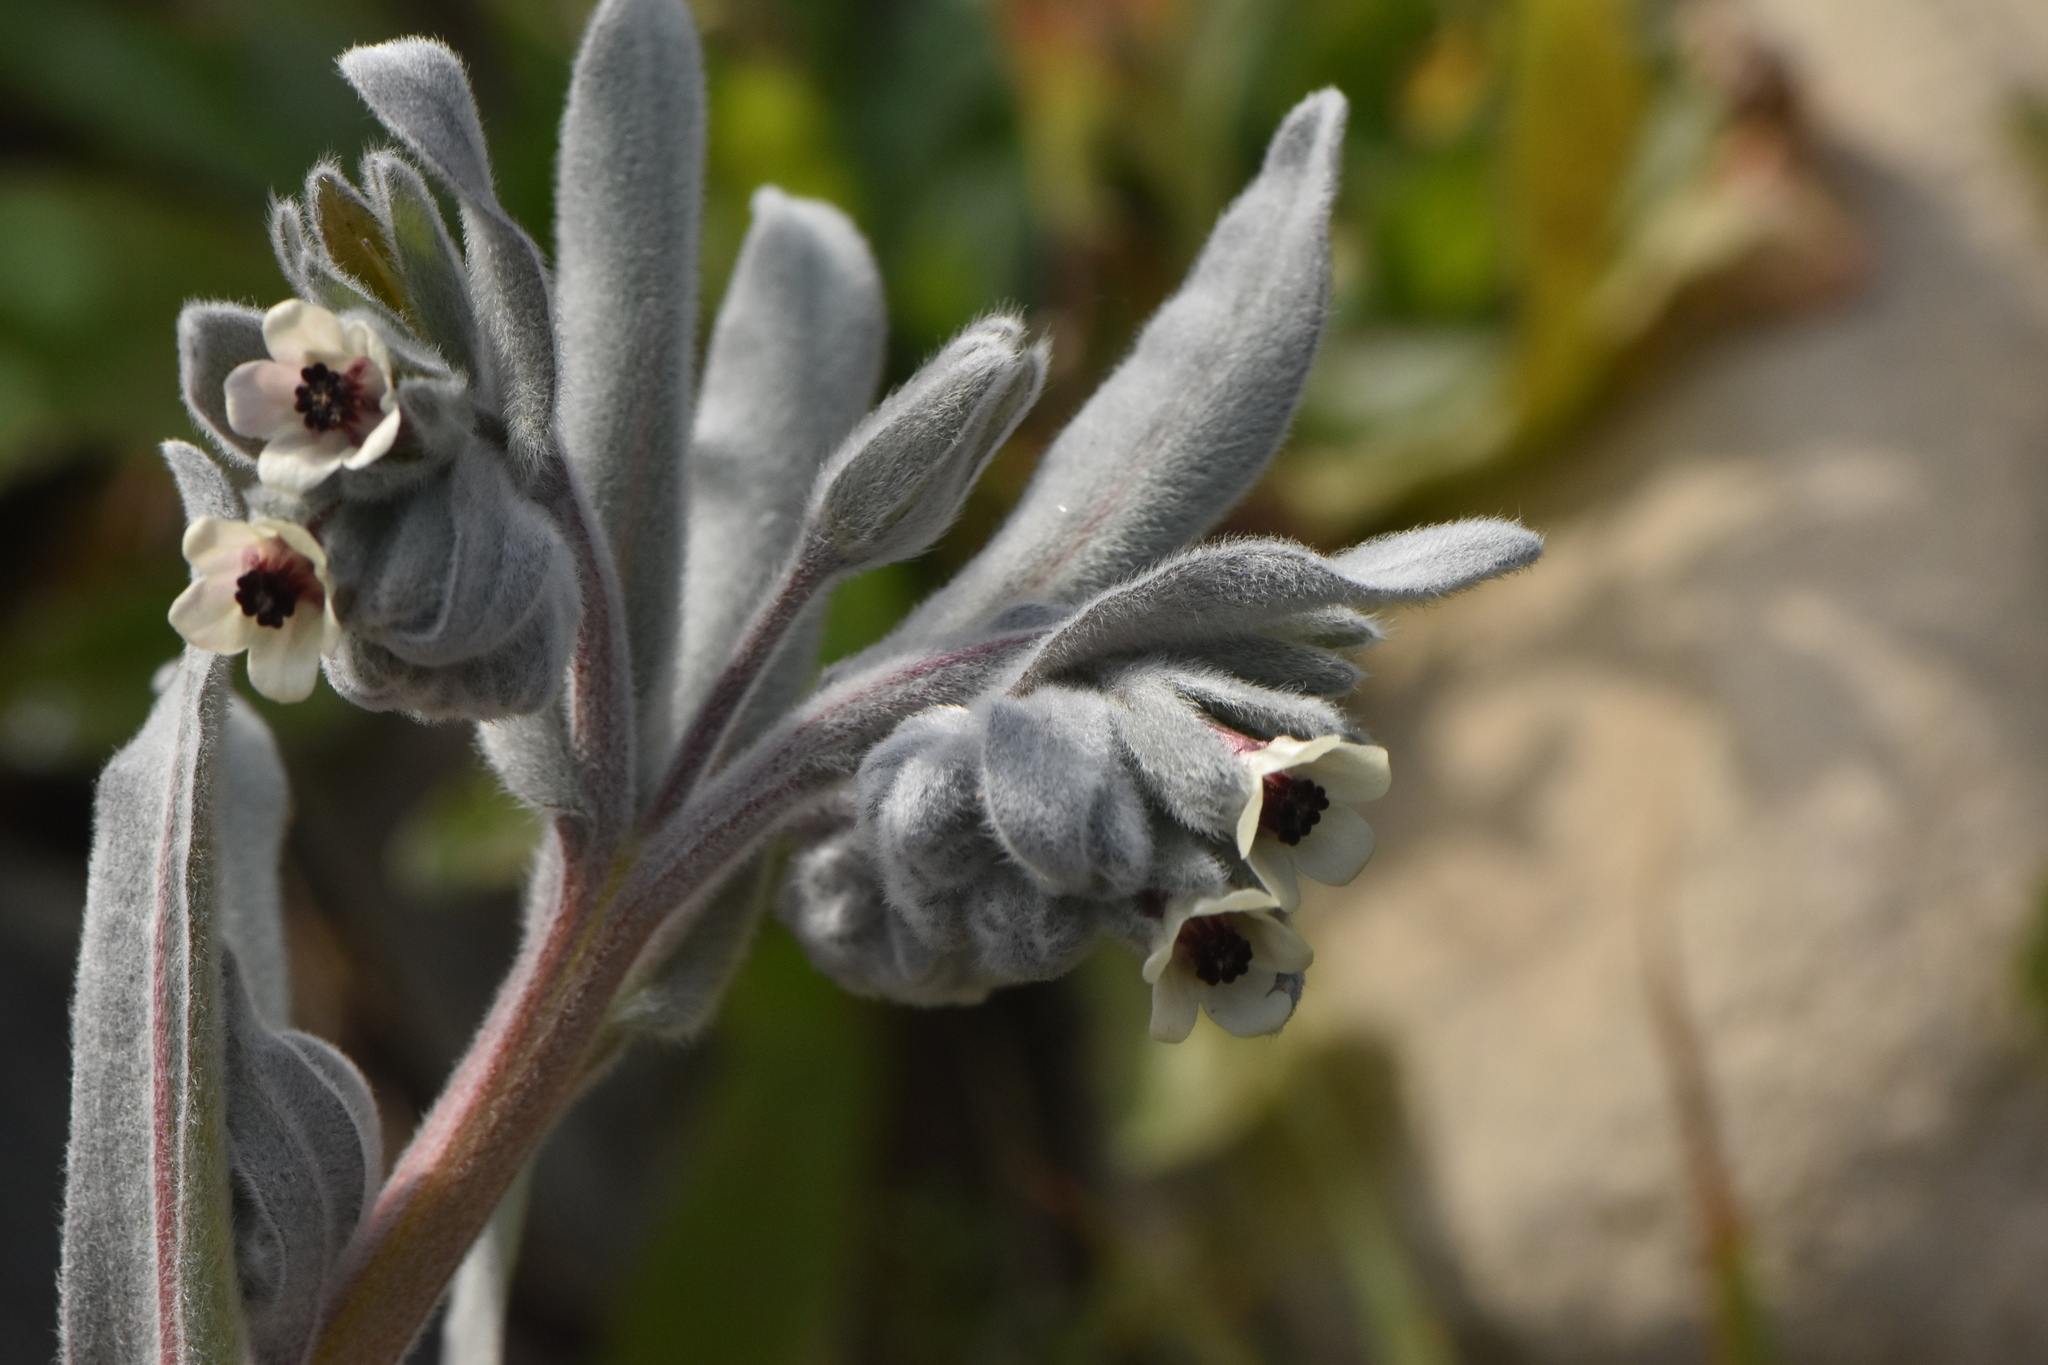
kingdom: Plantae
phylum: Tracheophyta
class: Magnoliopsida
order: Boraginales
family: Boraginaceae
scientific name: Boraginaceae
